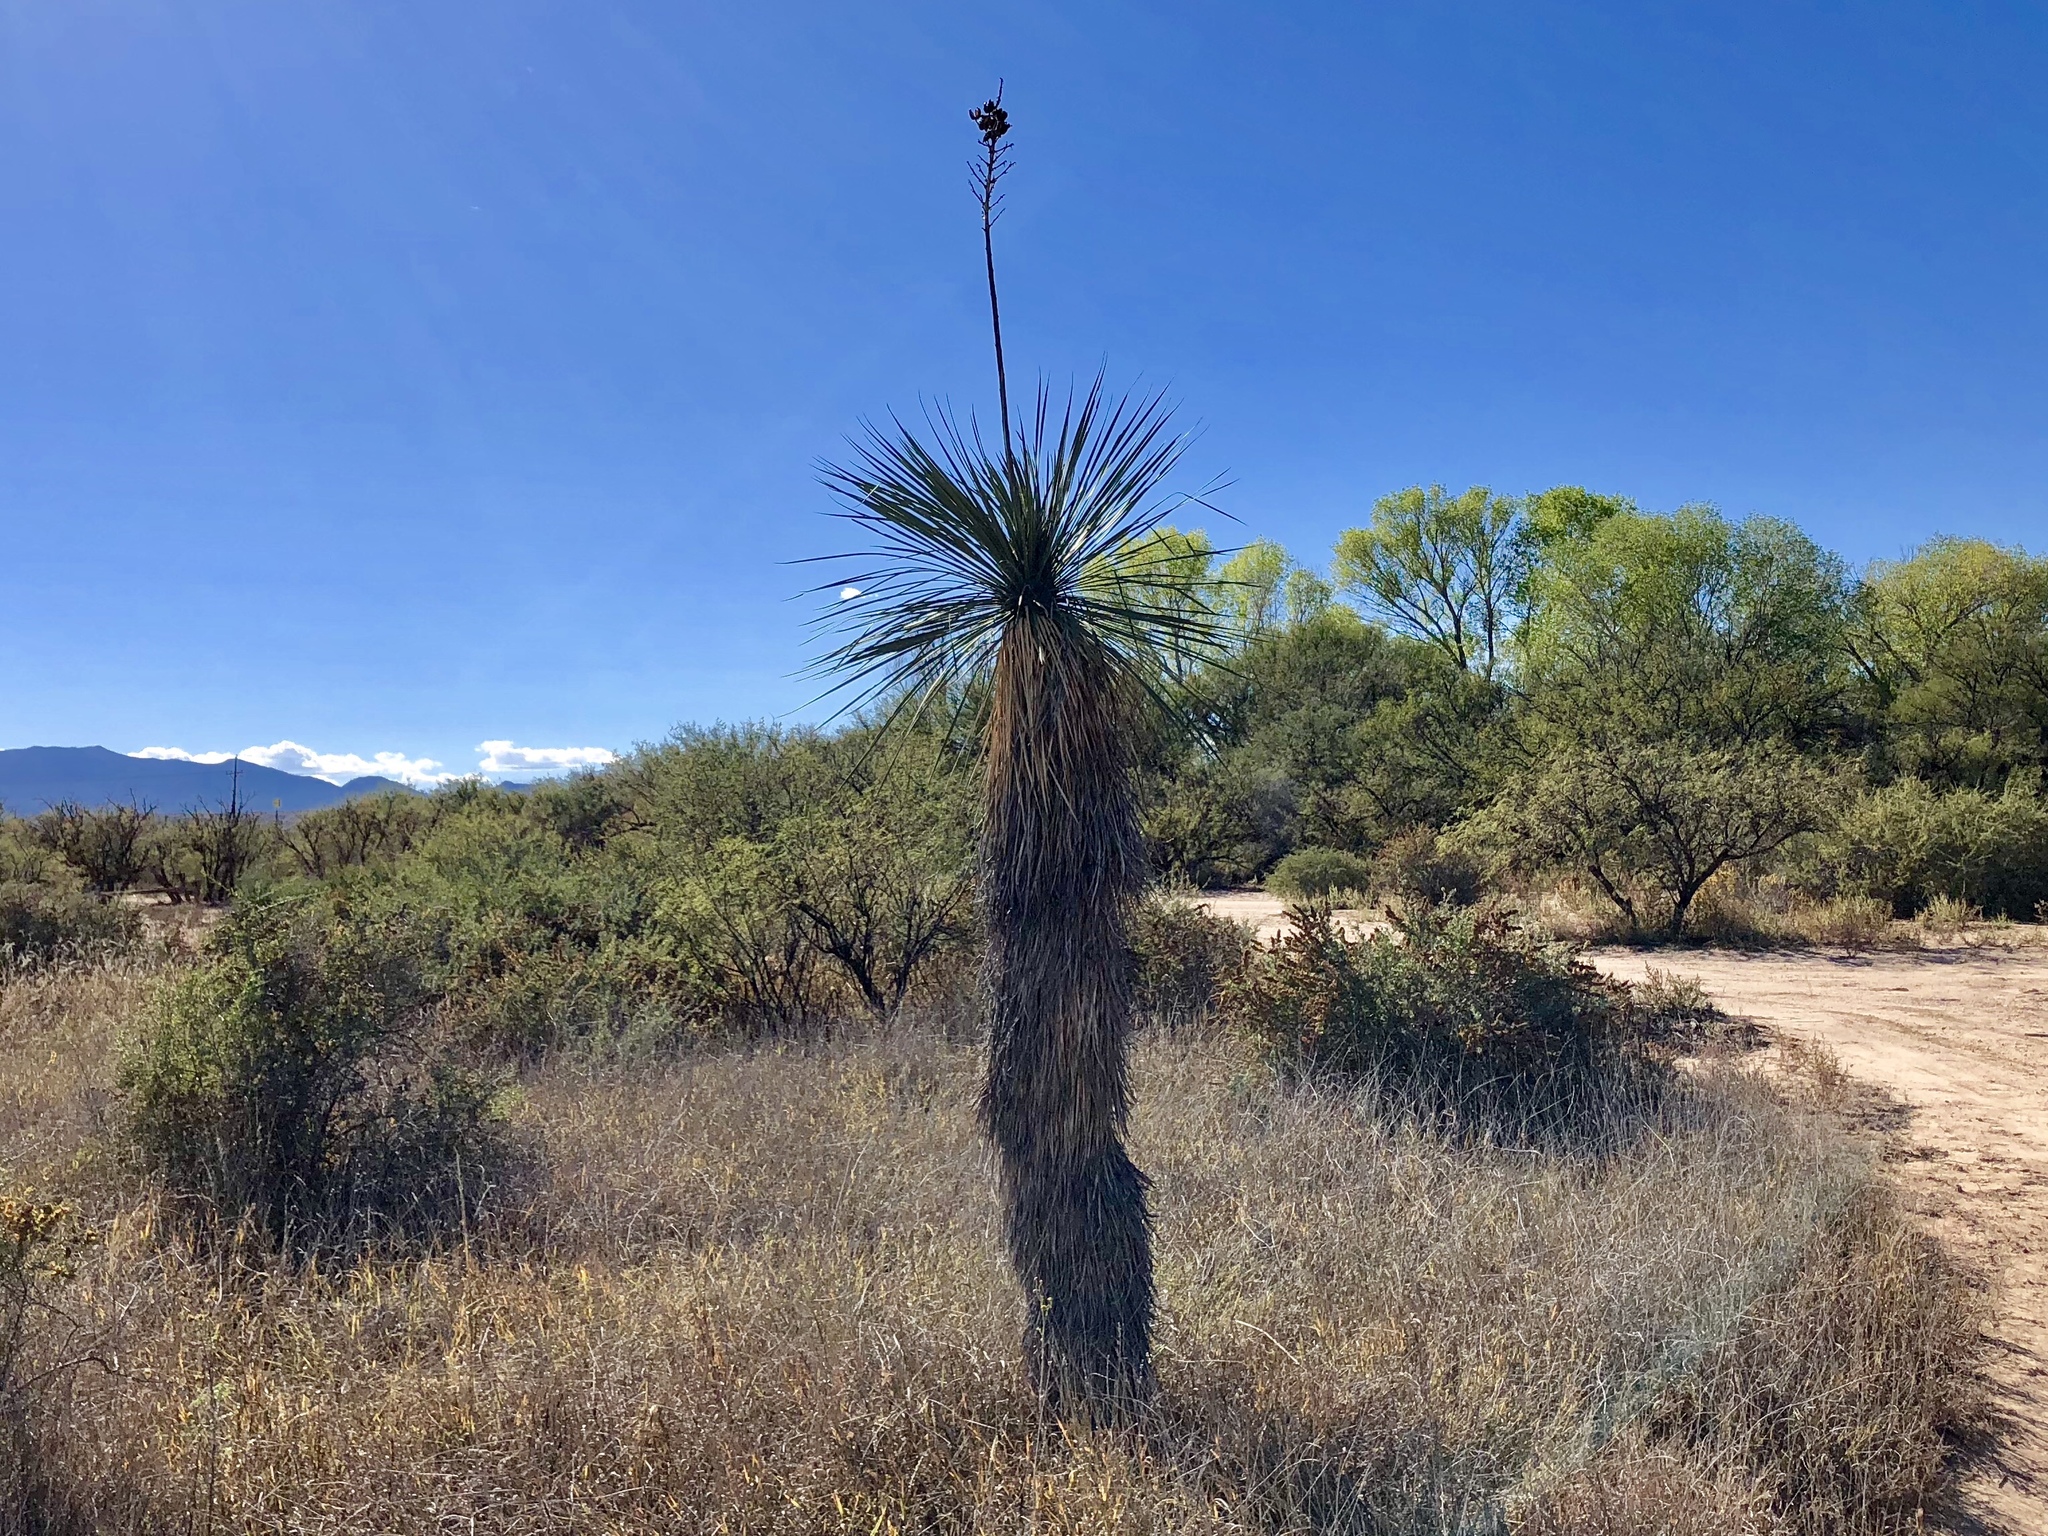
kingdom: Plantae
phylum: Tracheophyta
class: Liliopsida
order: Asparagales
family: Asparagaceae
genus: Yucca
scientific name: Yucca elata
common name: Palmella
